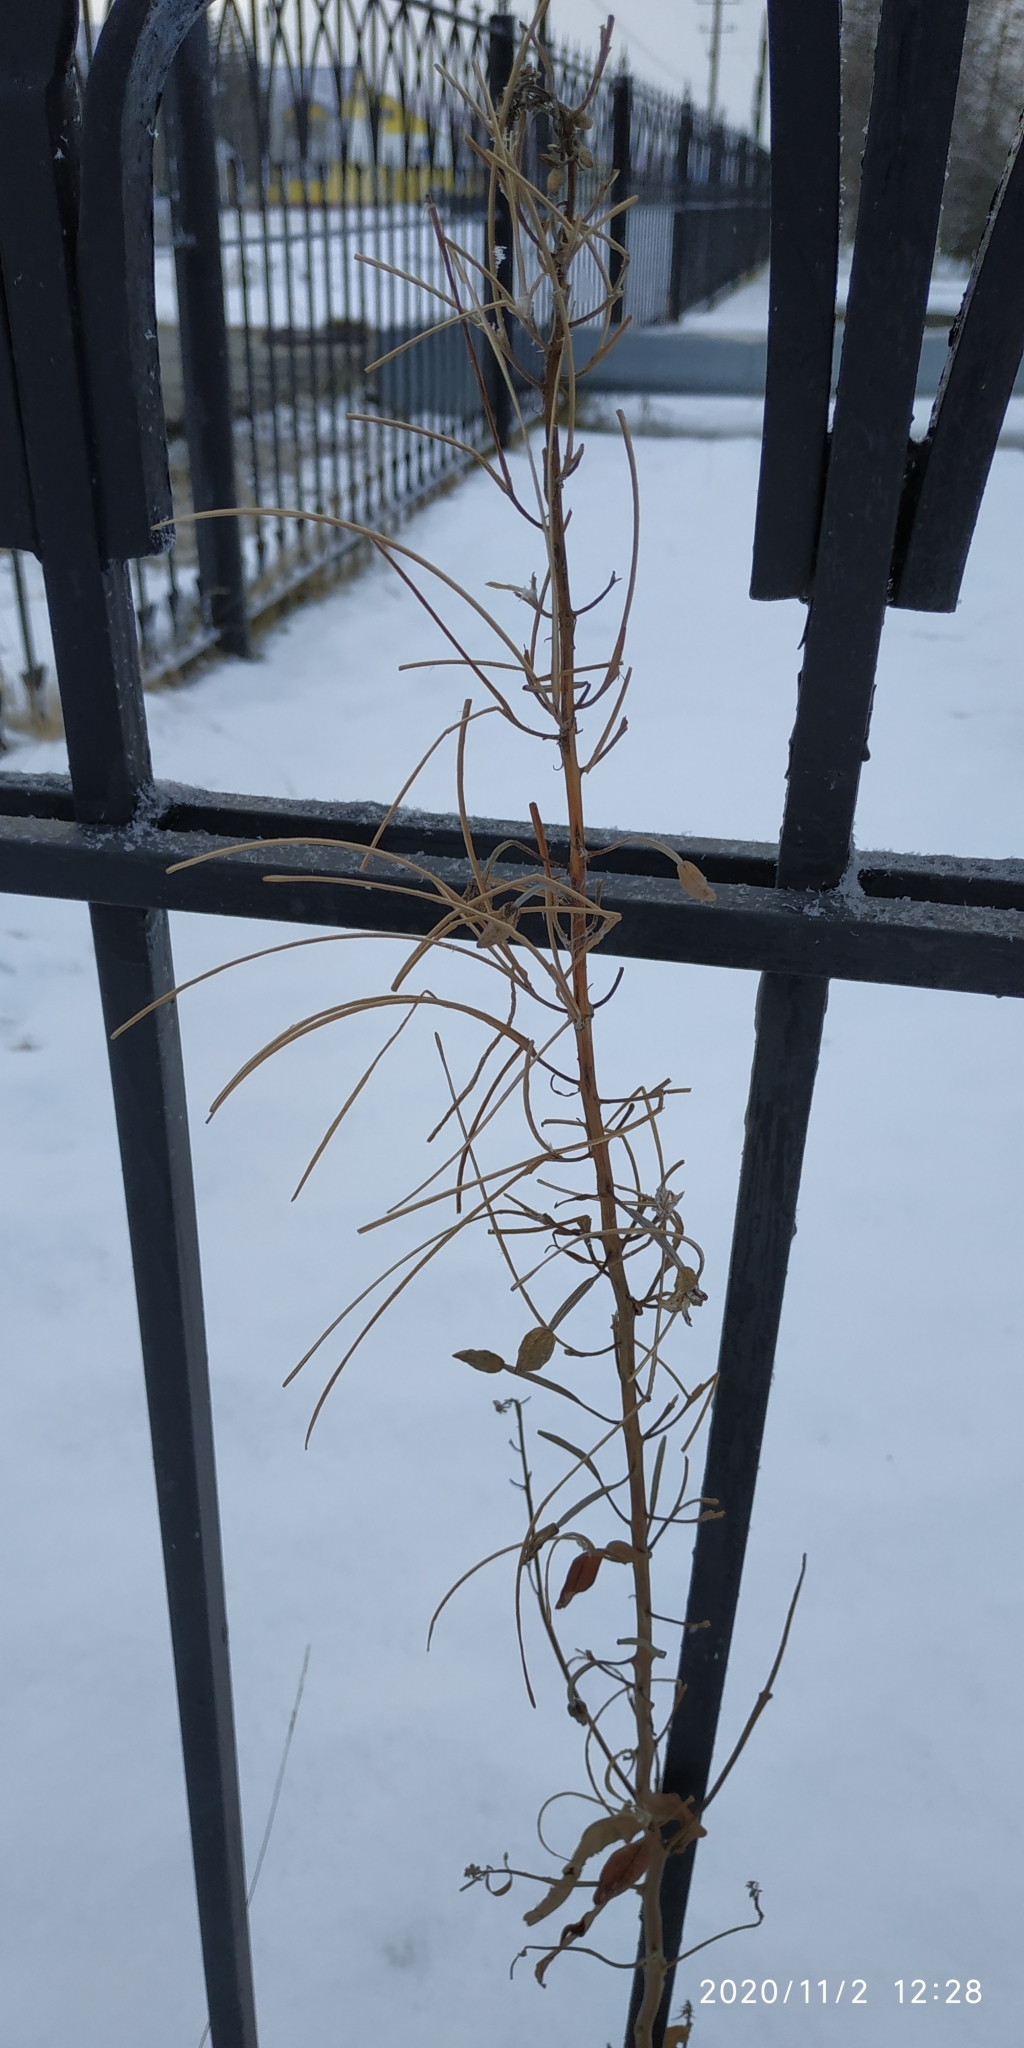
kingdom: Plantae
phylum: Tracheophyta
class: Magnoliopsida
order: Myrtales
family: Onagraceae
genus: Chamaenerion
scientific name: Chamaenerion angustifolium
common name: Fireweed
